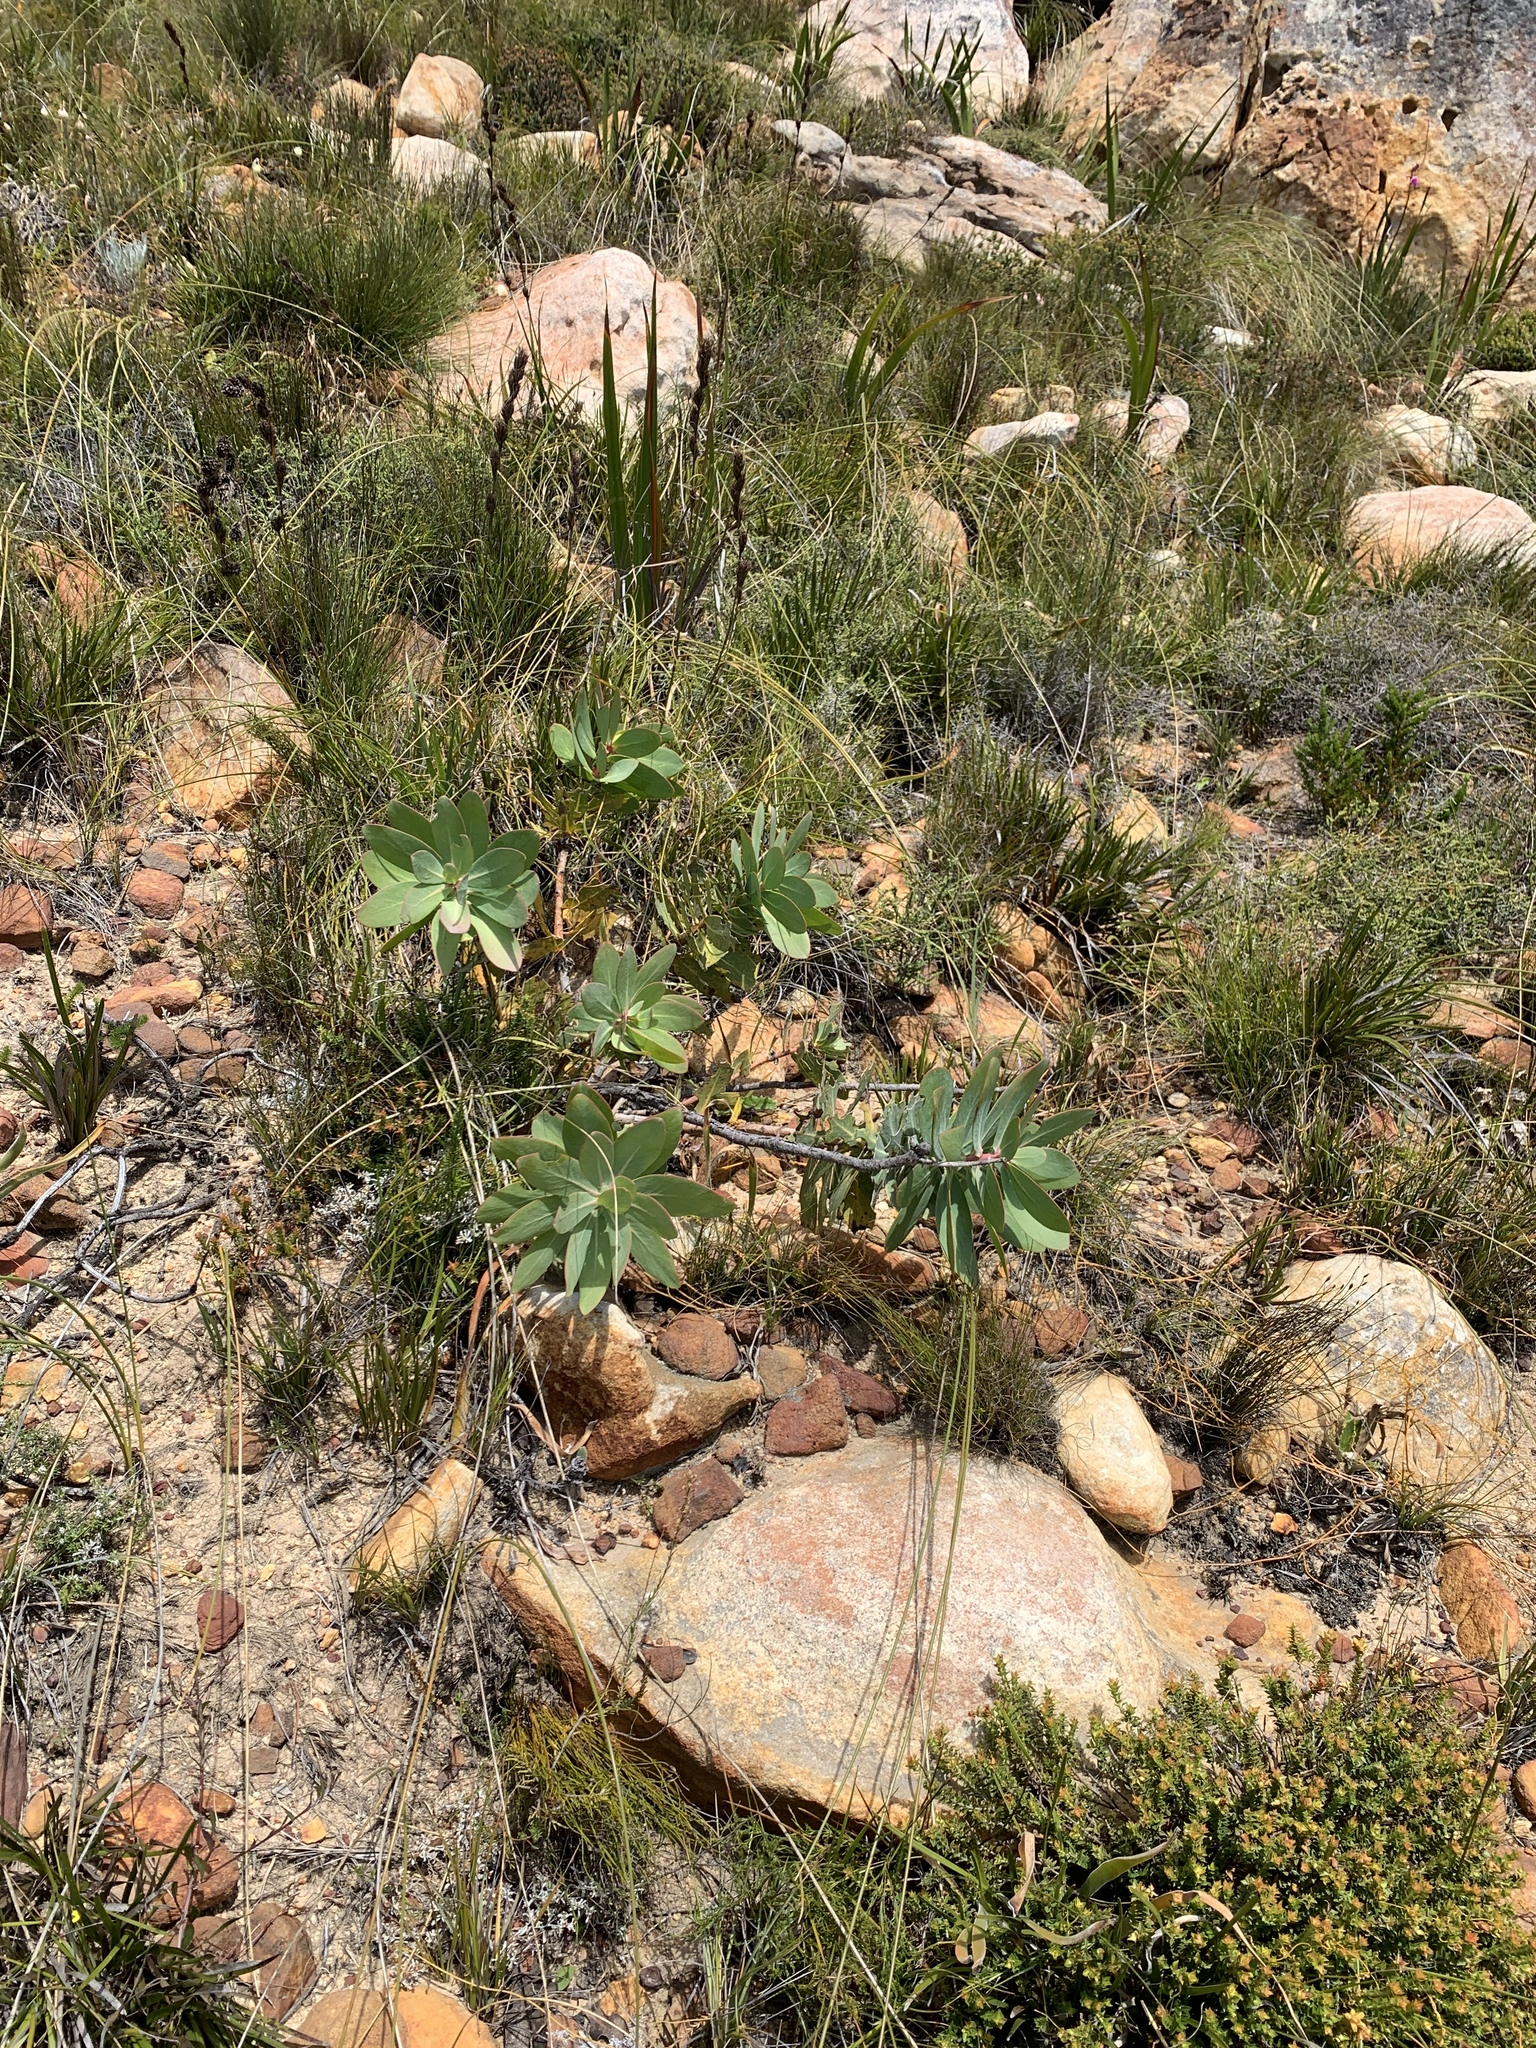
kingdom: Plantae
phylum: Tracheophyta
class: Magnoliopsida
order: Proteales
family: Proteaceae
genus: Protea
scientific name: Protea nitida
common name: Tree protea
